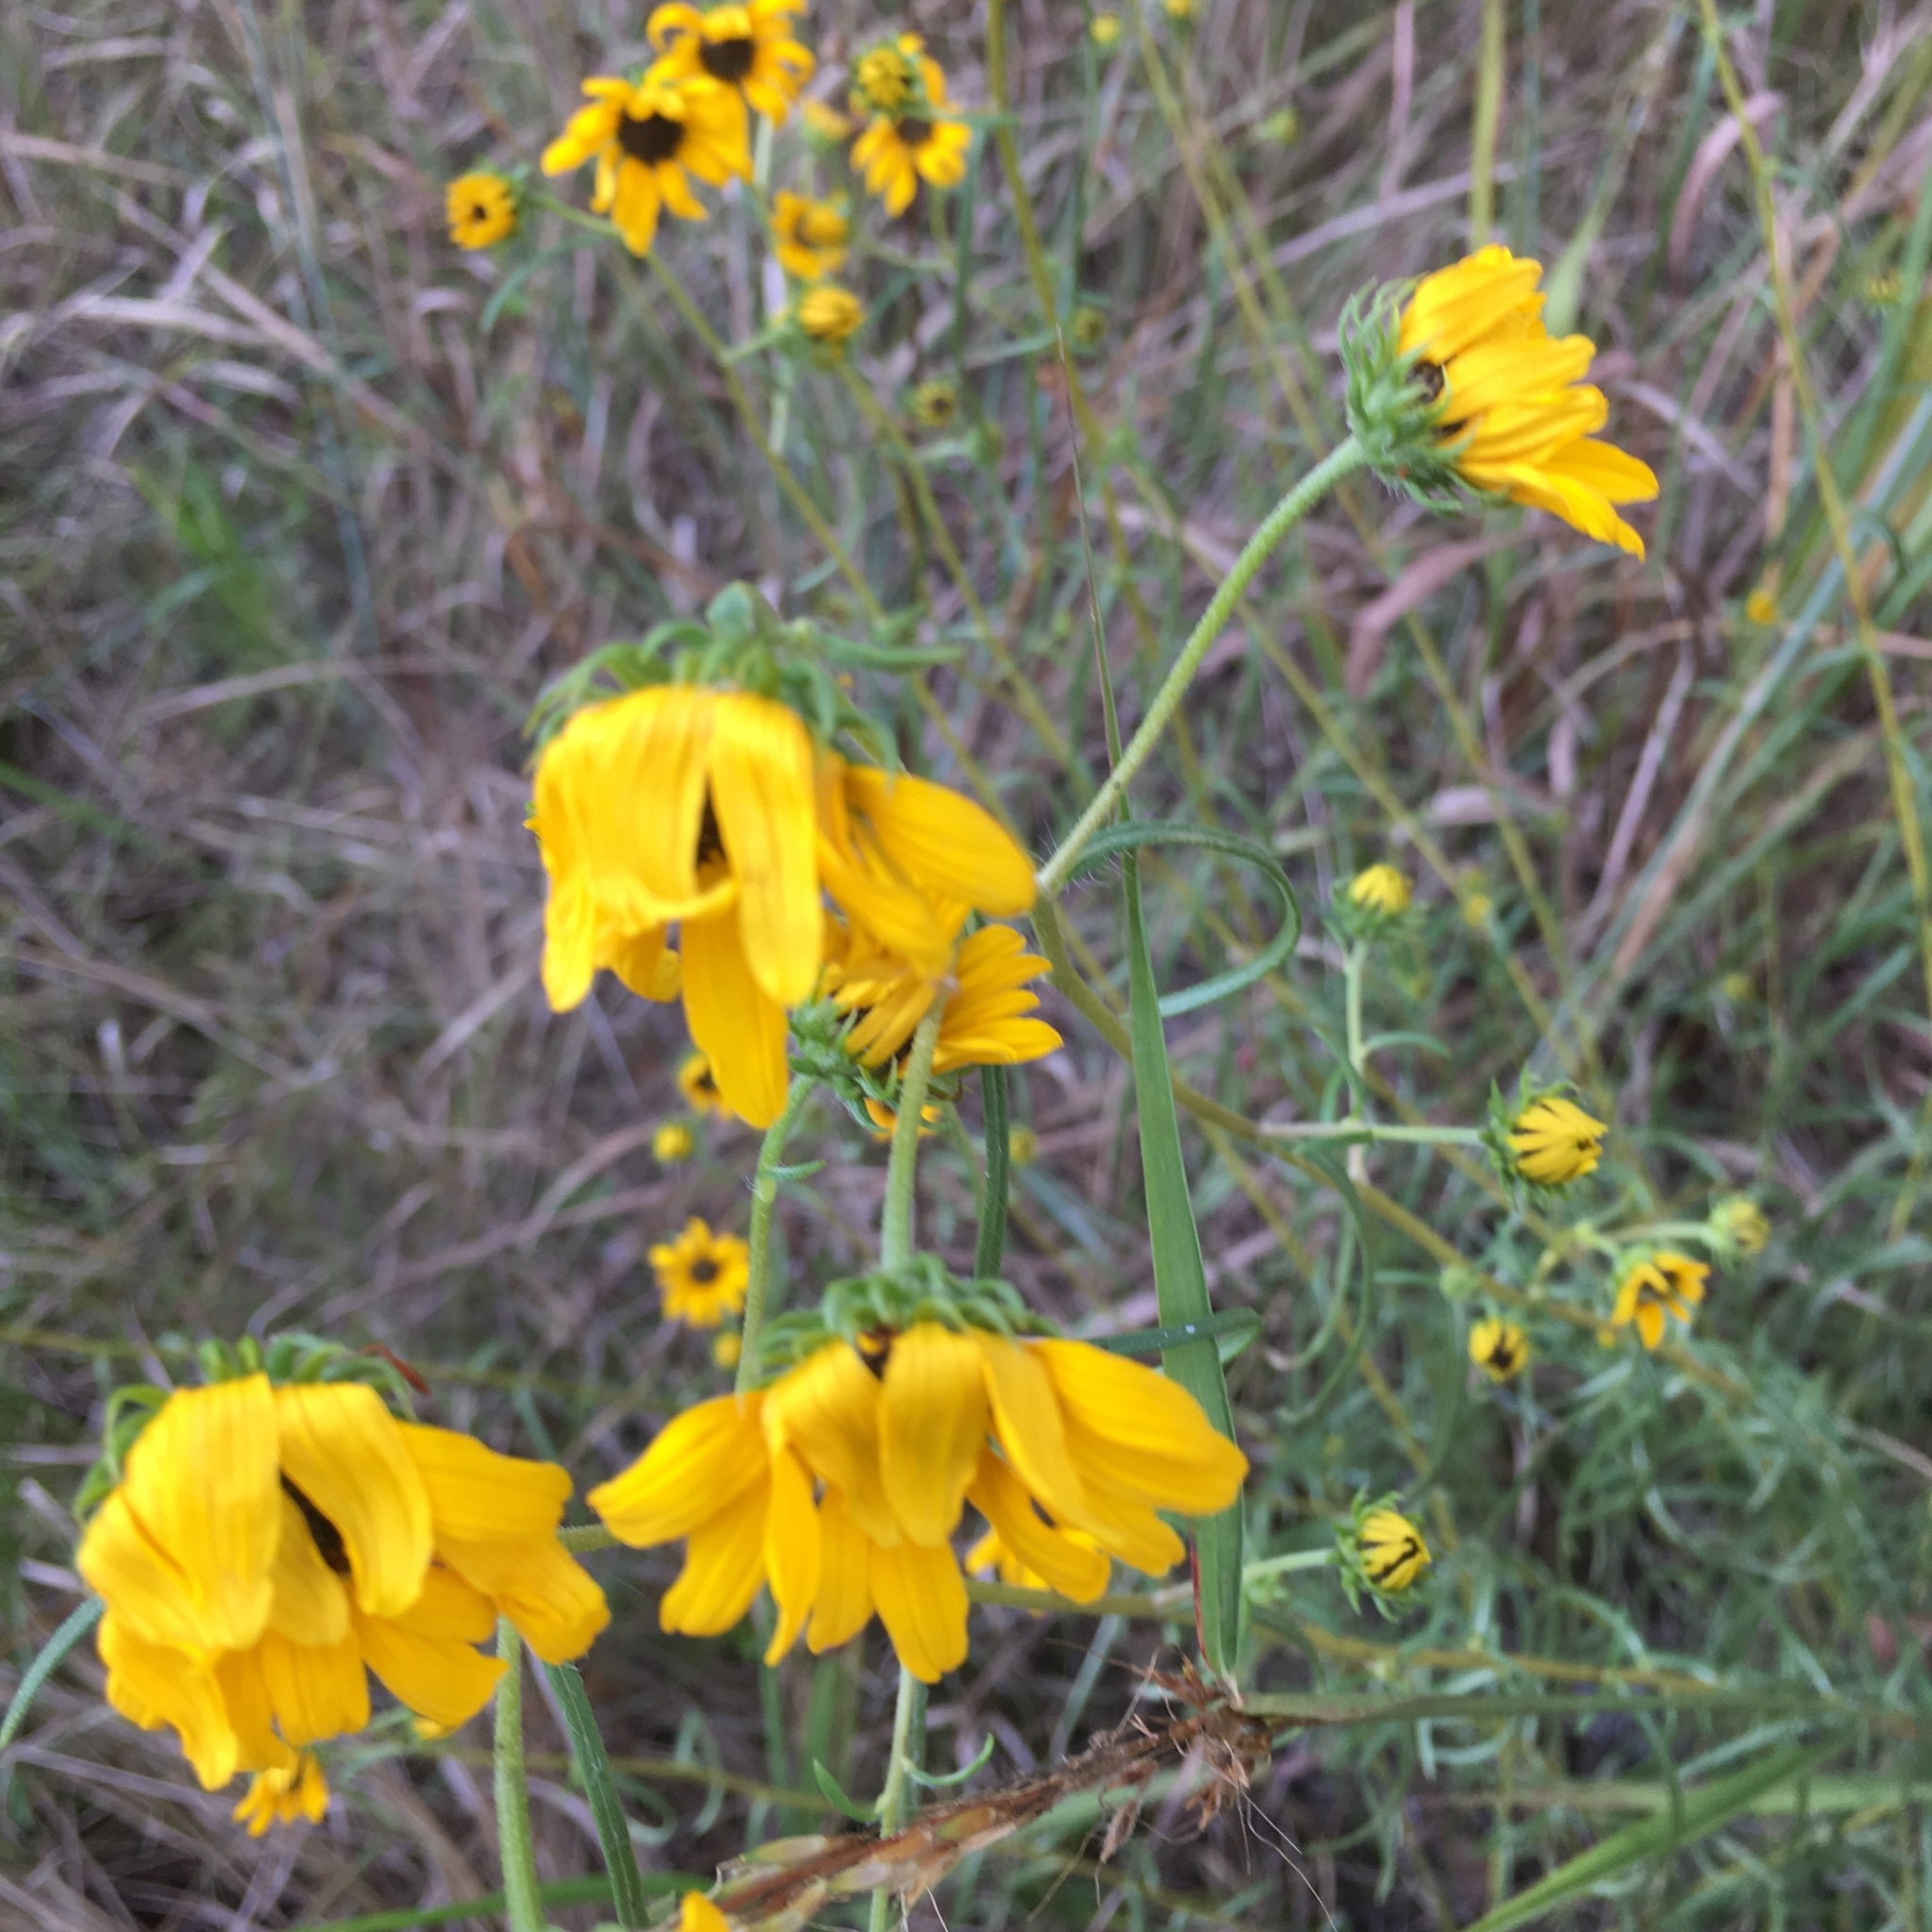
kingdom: Plantae
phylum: Tracheophyta
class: Magnoliopsida
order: Asterales
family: Asteraceae
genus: Helianthus
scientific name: Helianthus angustifolius
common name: Swamp sunflower
